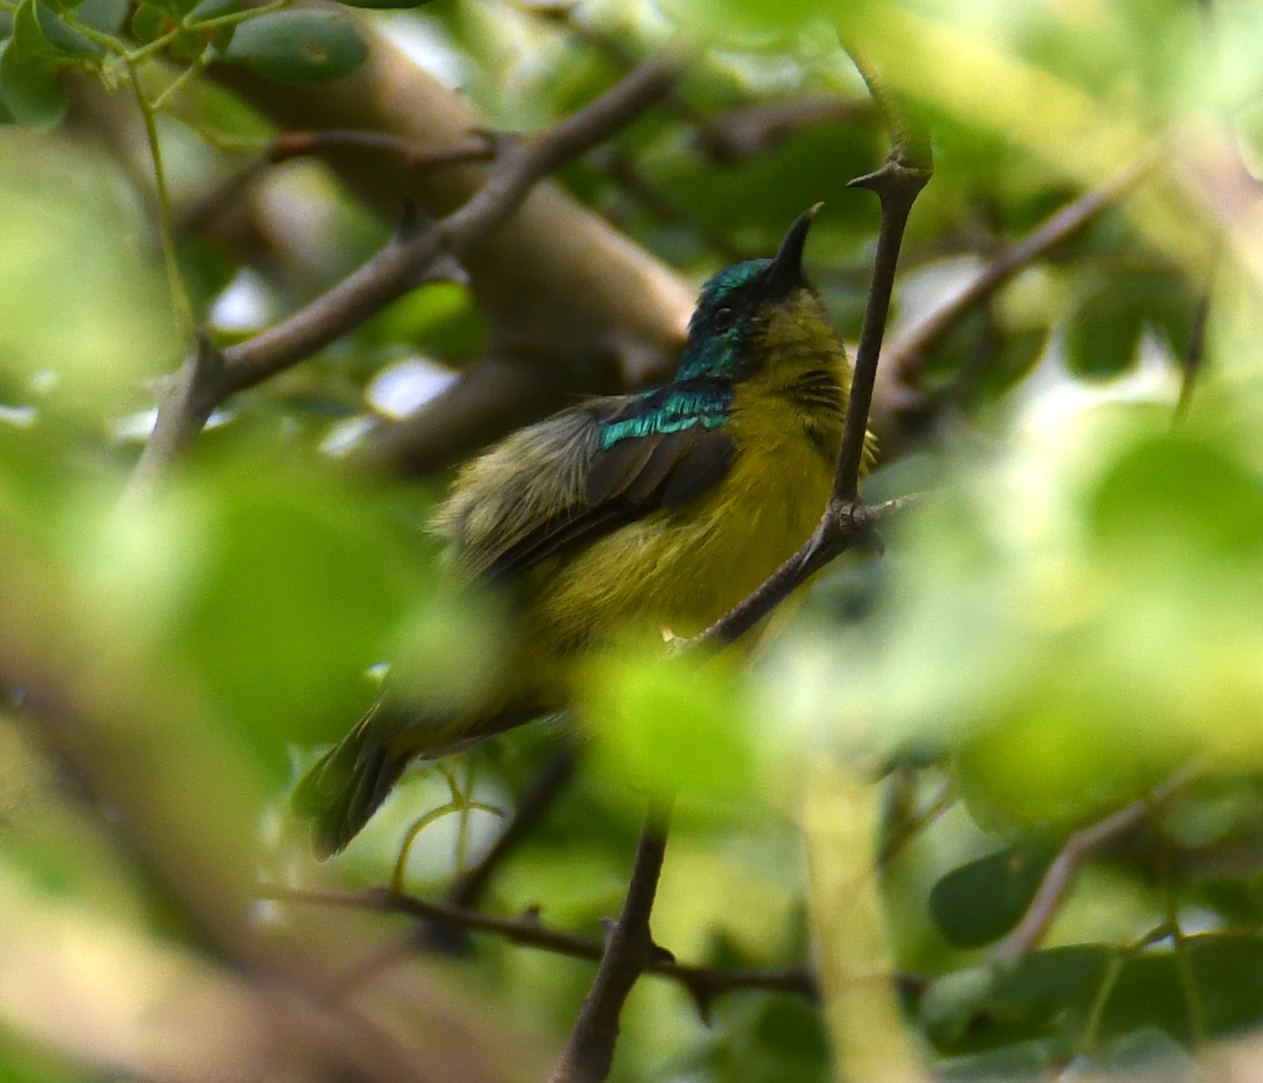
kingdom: Animalia
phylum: Chordata
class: Aves
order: Passeriformes
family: Nectariniidae
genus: Hedydipna
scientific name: Hedydipna collaris
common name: Collared sunbird
